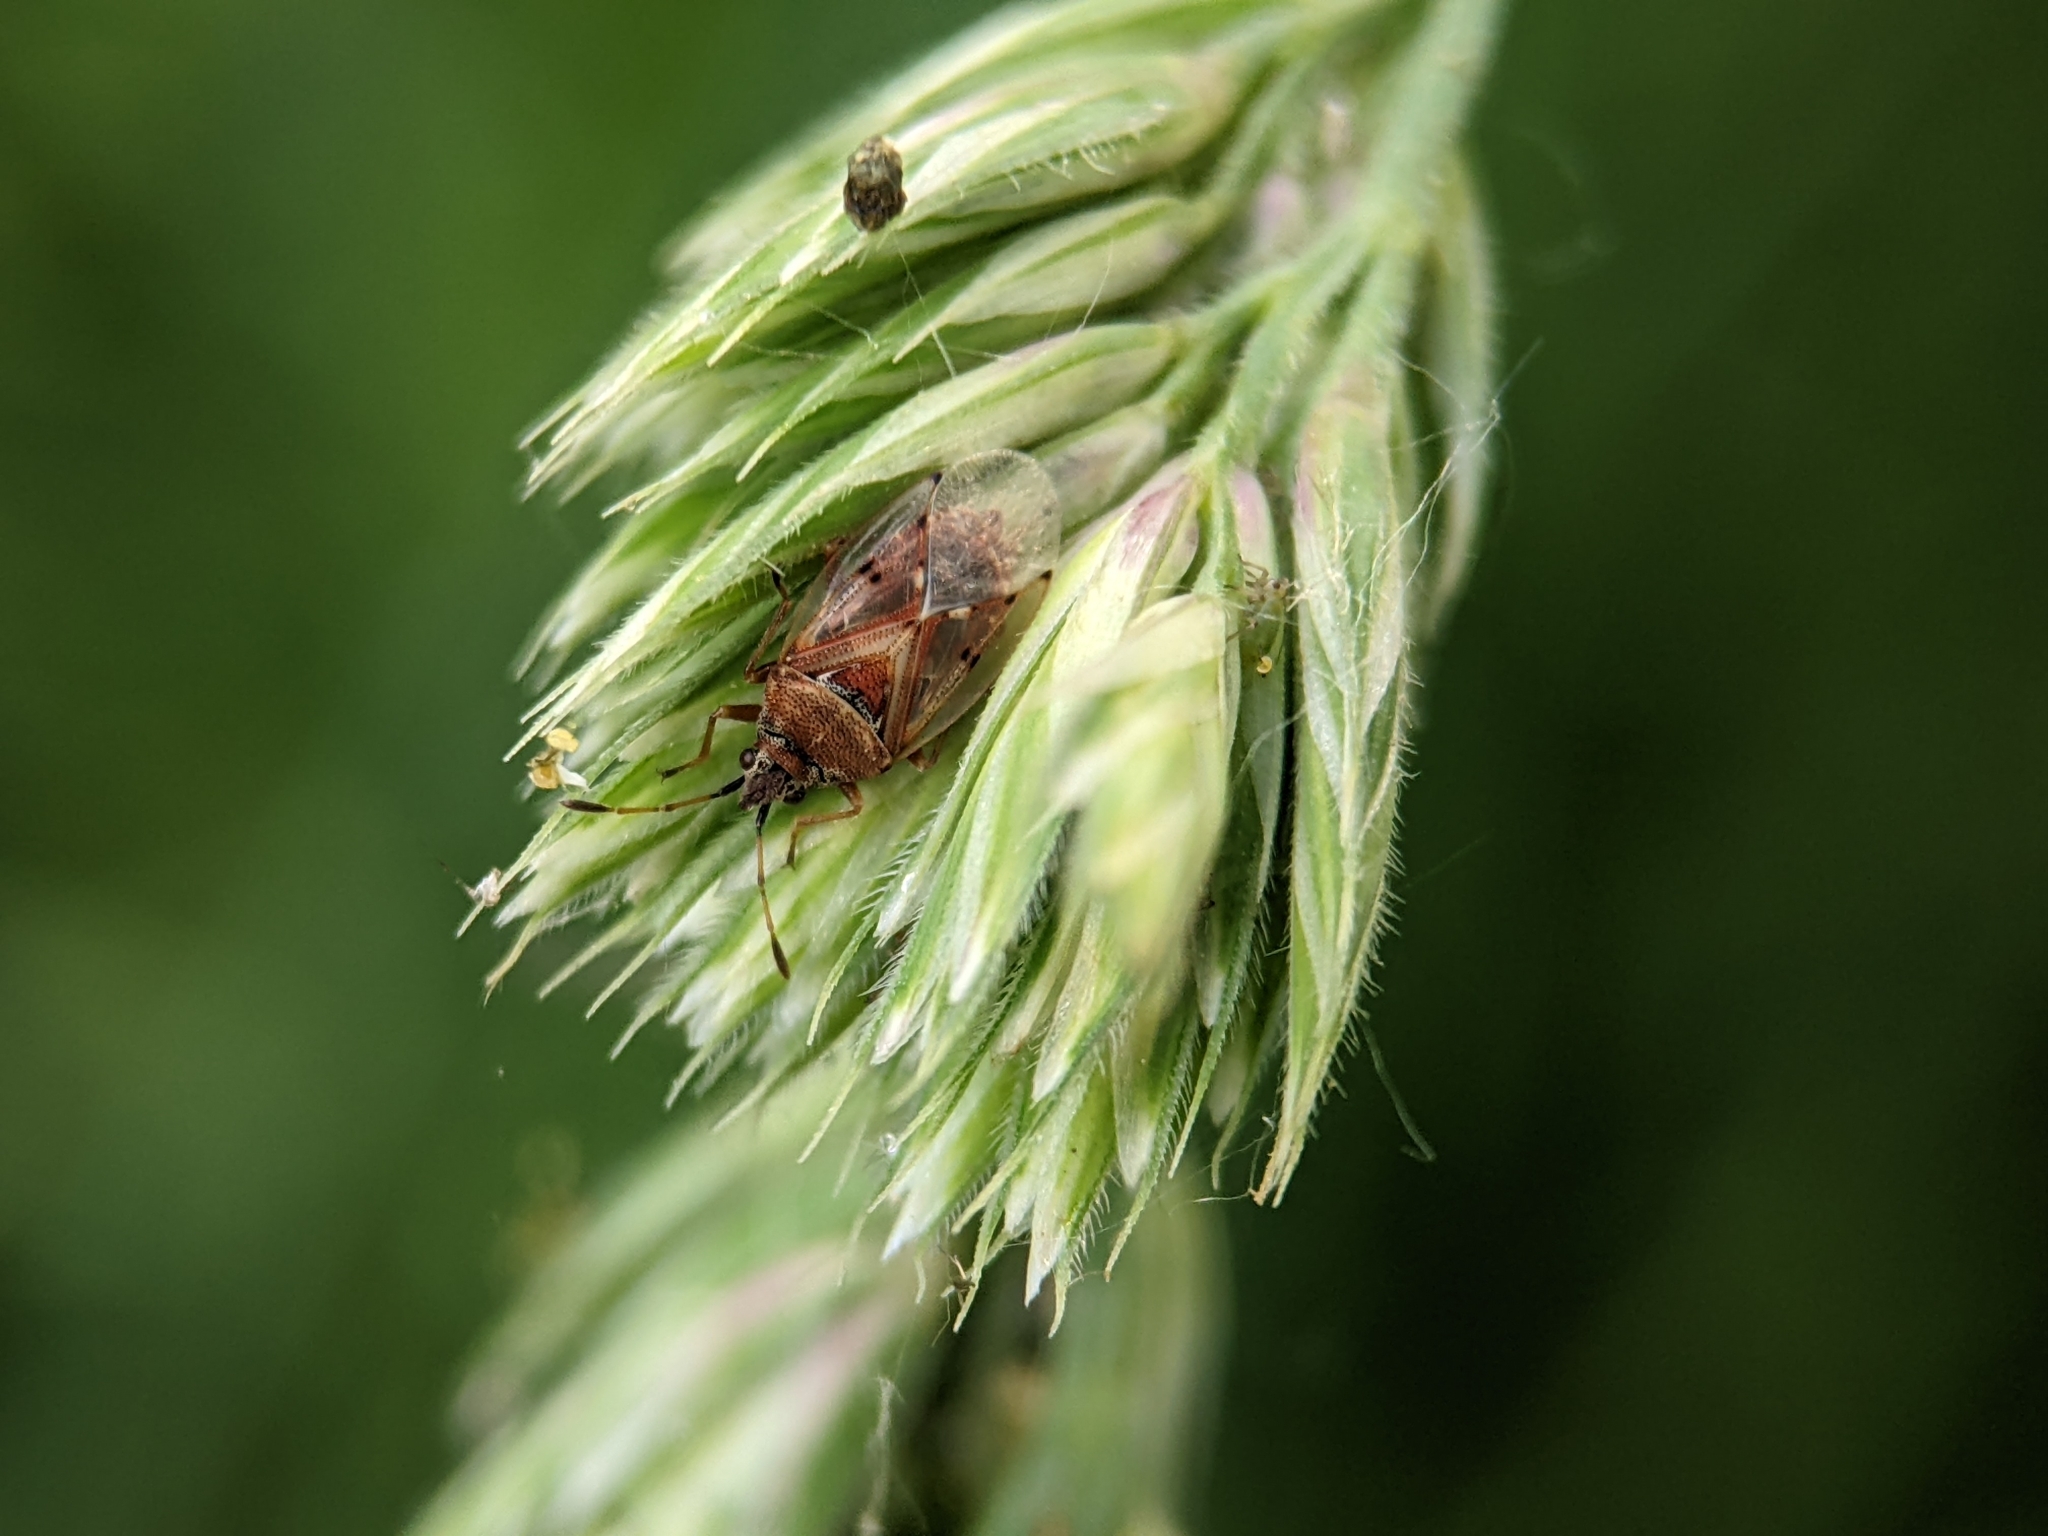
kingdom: Animalia
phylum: Arthropoda
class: Insecta
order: Hemiptera
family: Lygaeidae
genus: Kleidocerys
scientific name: Kleidocerys resedae
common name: Birch catkin bug
